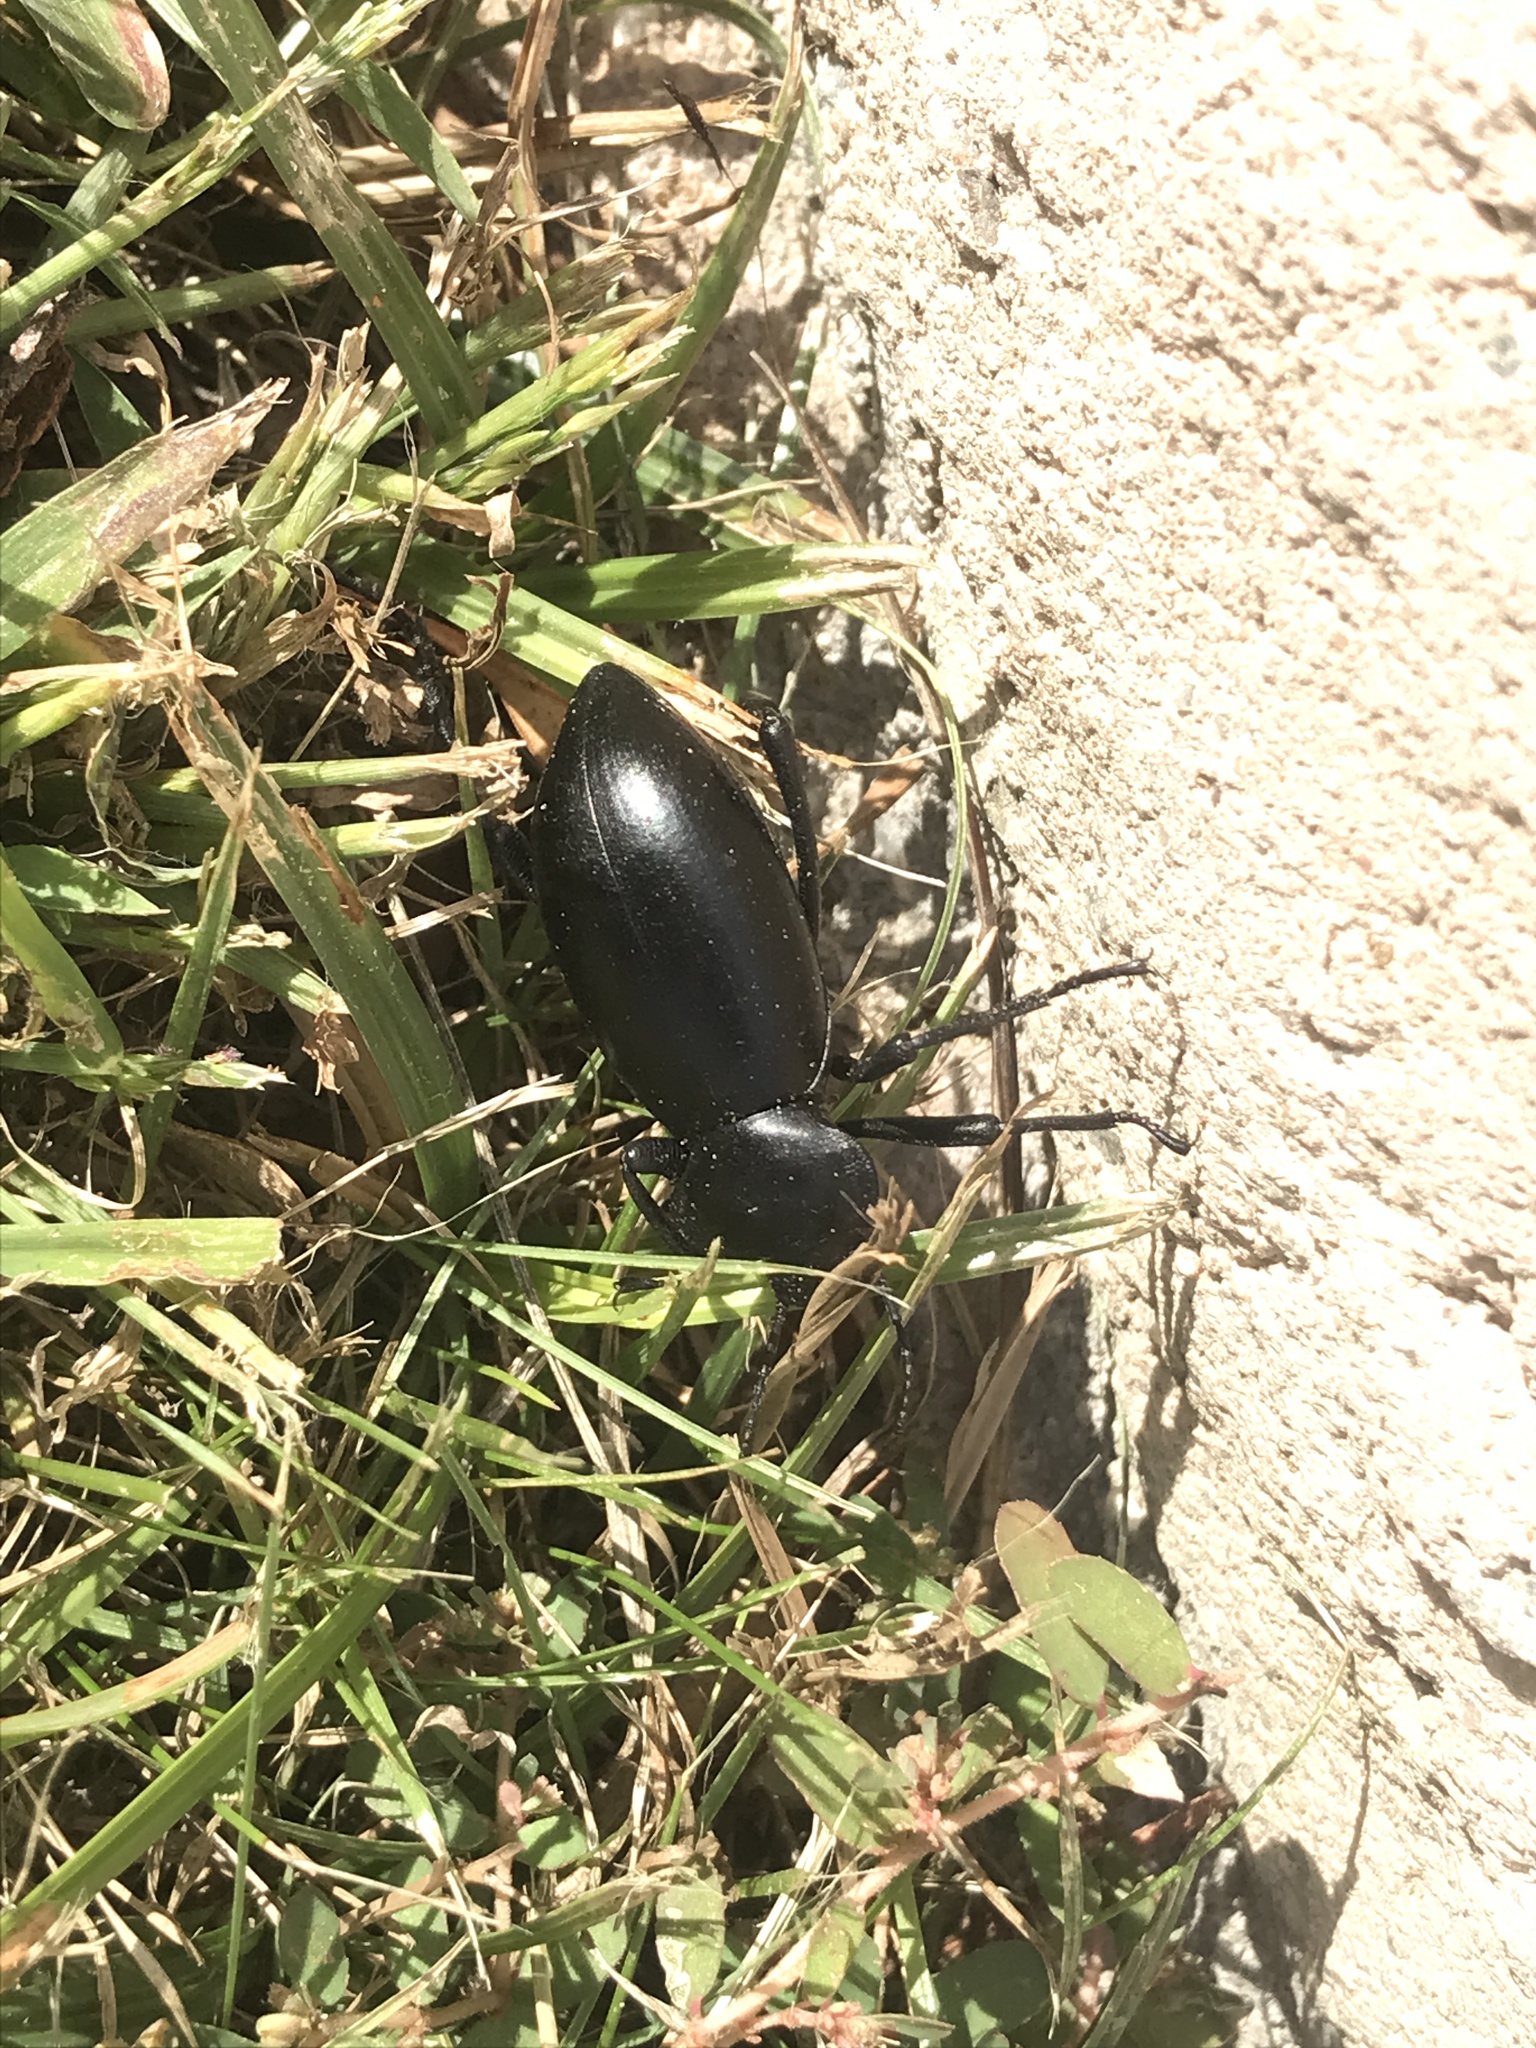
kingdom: Animalia
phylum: Arthropoda
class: Insecta
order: Coleoptera
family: Tenebrionidae
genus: Eleodes
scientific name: Eleodes grandicollis
